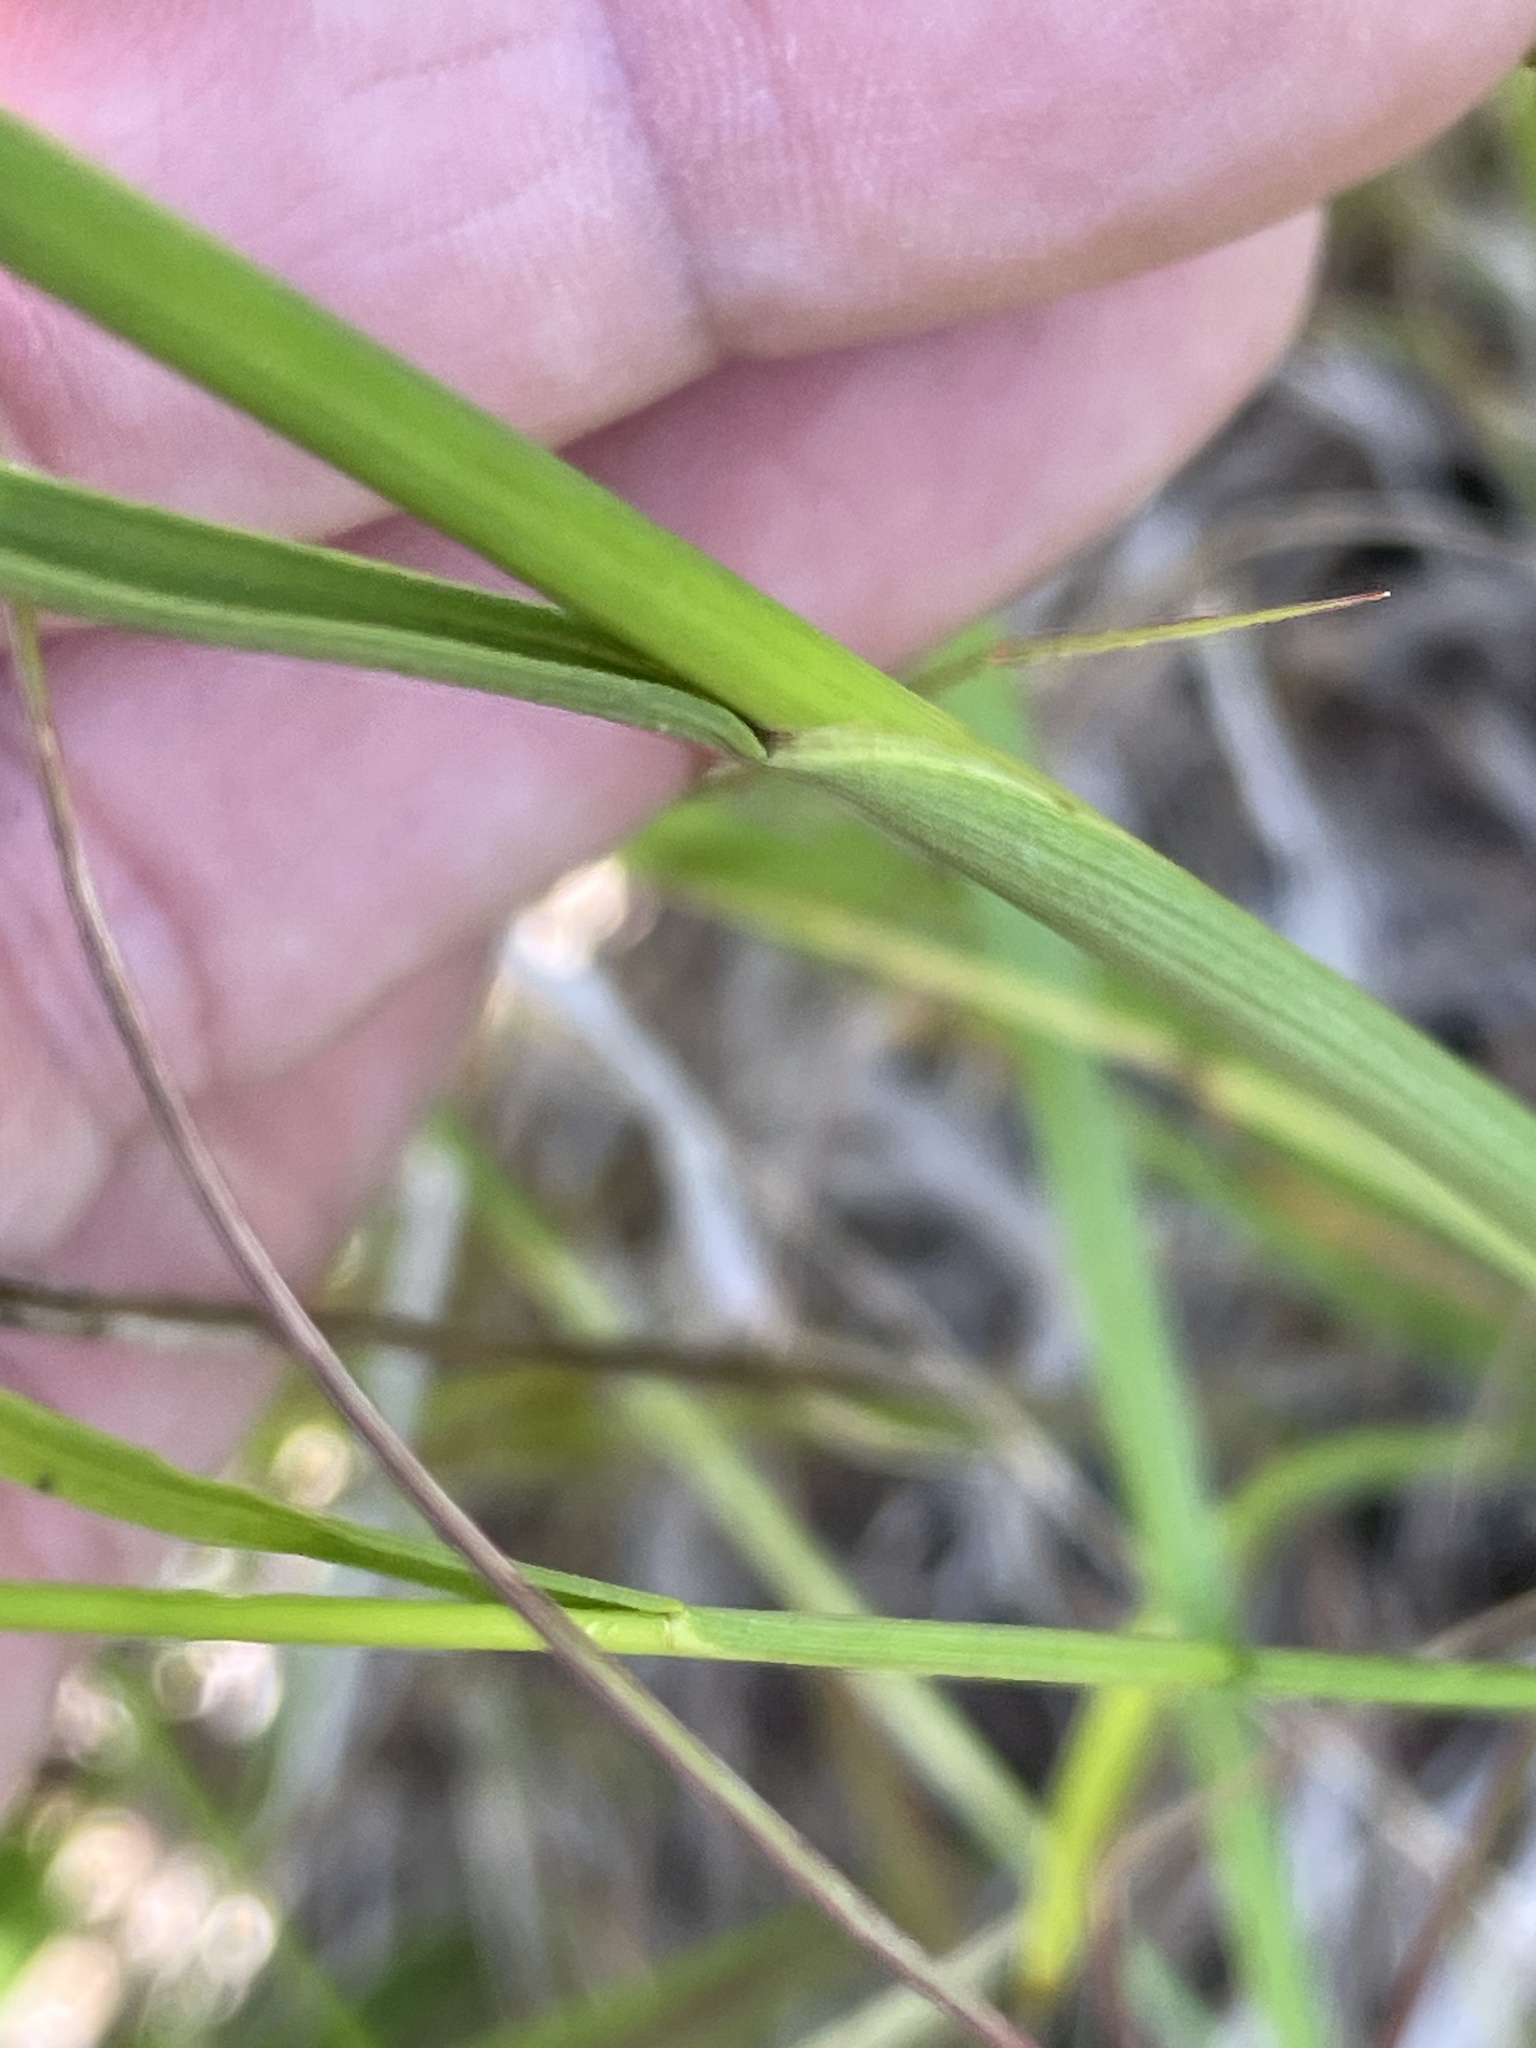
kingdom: Plantae
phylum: Tracheophyta
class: Liliopsida
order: Poales
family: Juncaceae
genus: Juncus
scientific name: Juncus biflorus
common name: Two-flowered rush
